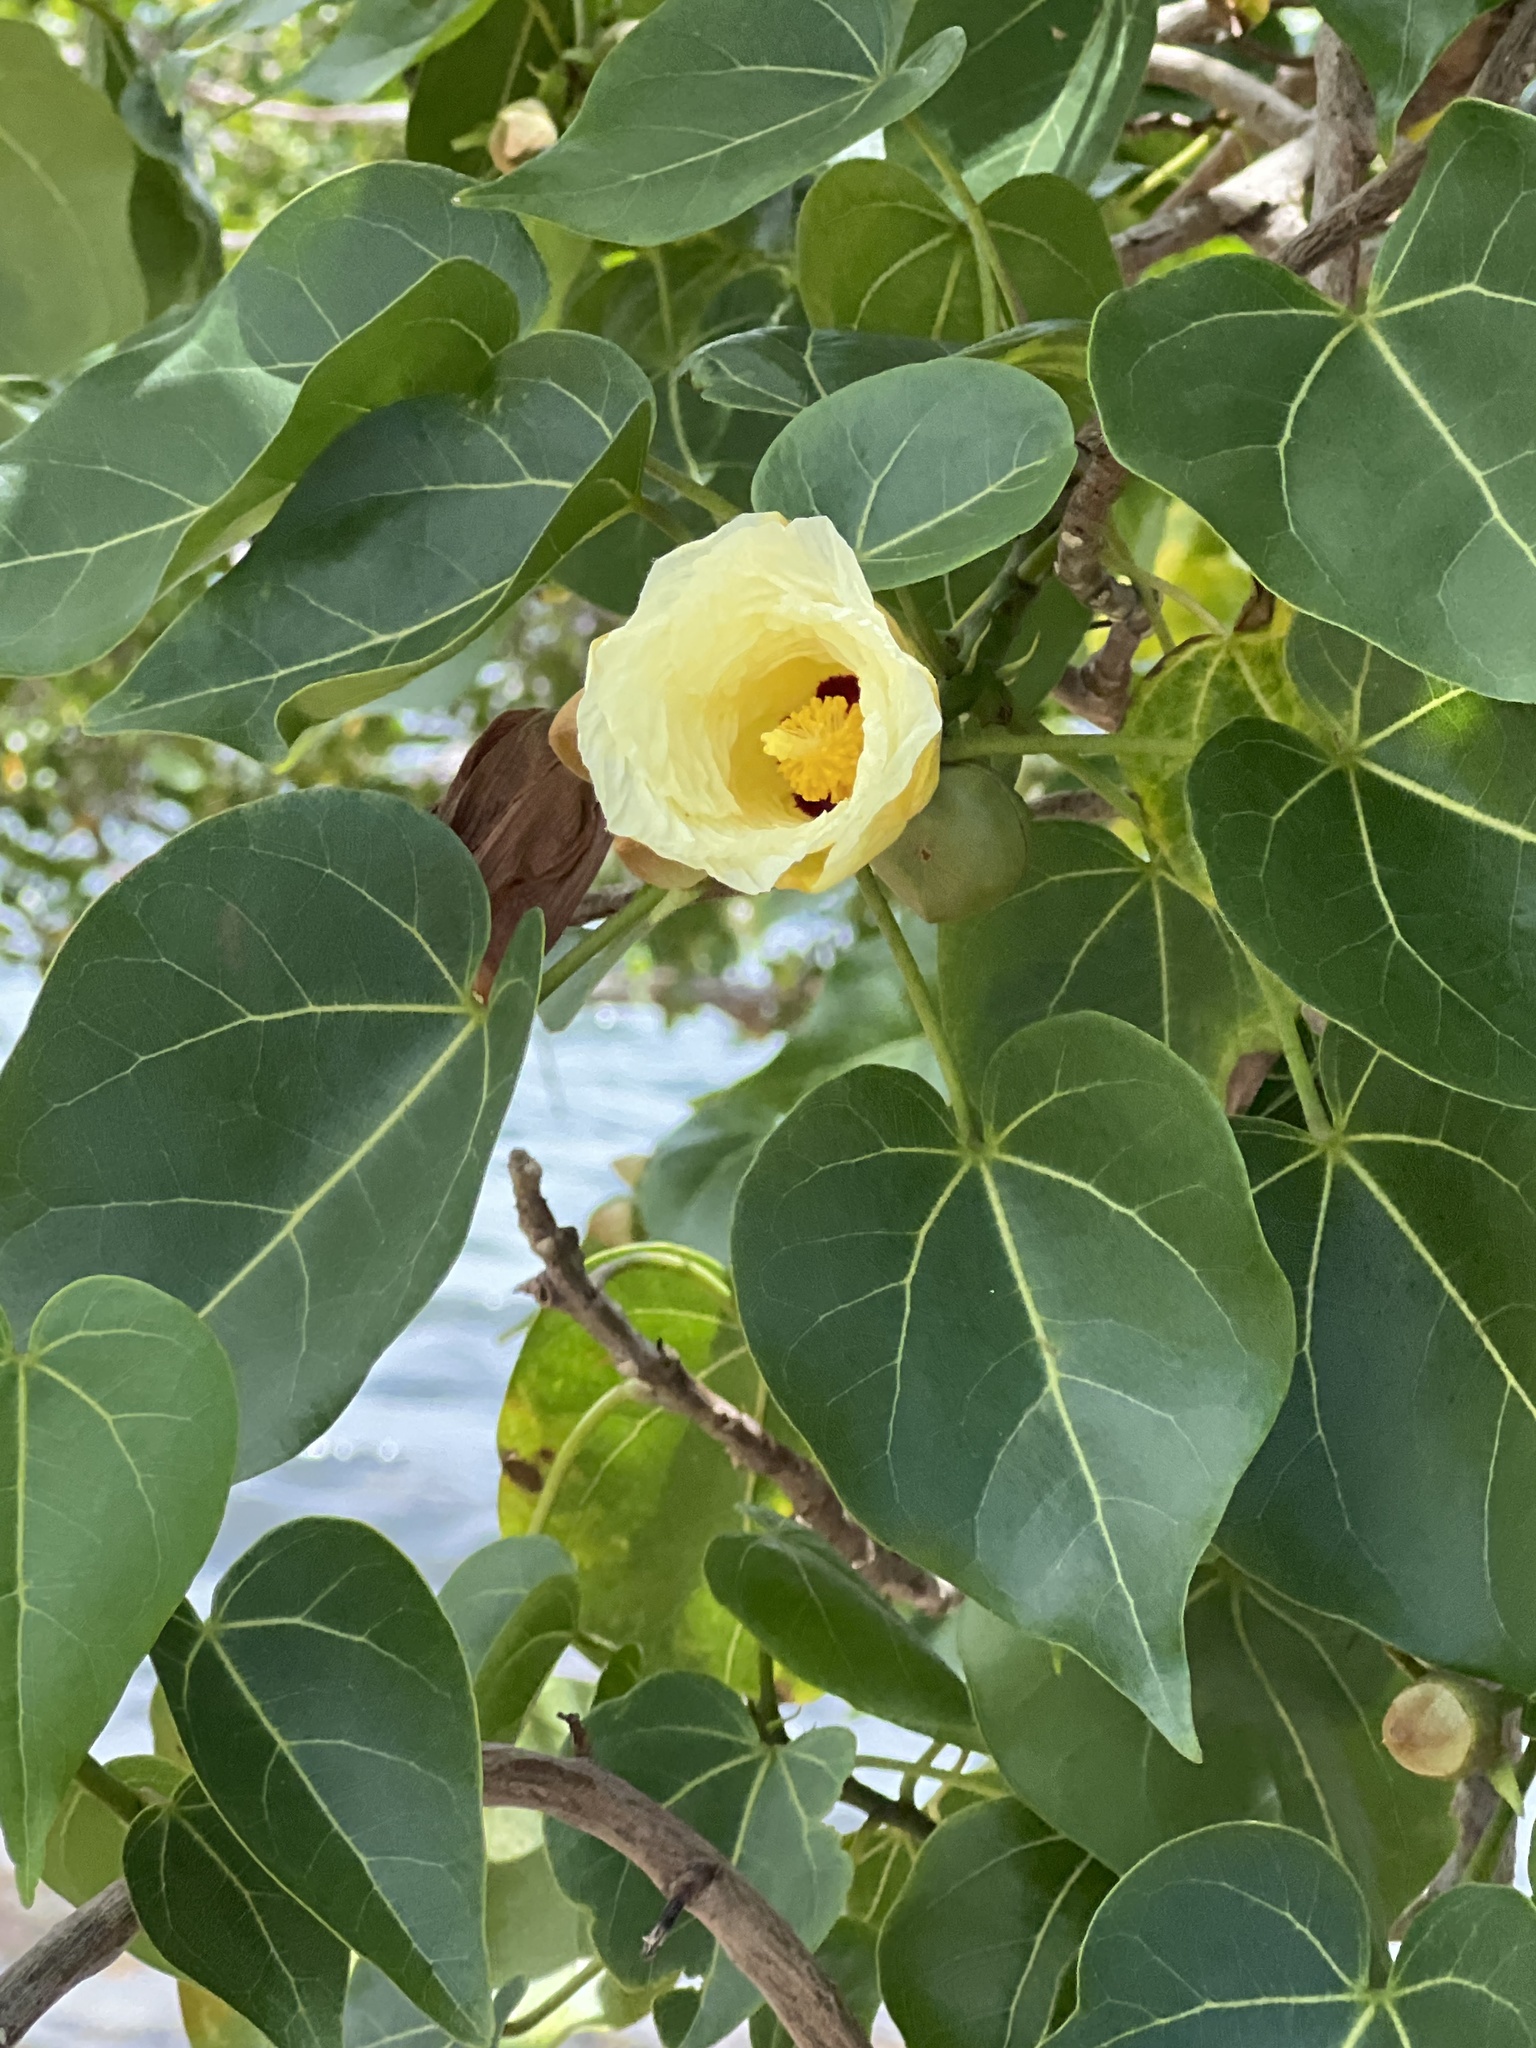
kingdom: Plantae
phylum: Tracheophyta
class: Magnoliopsida
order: Malvales
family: Malvaceae
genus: Thespesia
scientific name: Thespesia populnea
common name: Seaside mahoe
